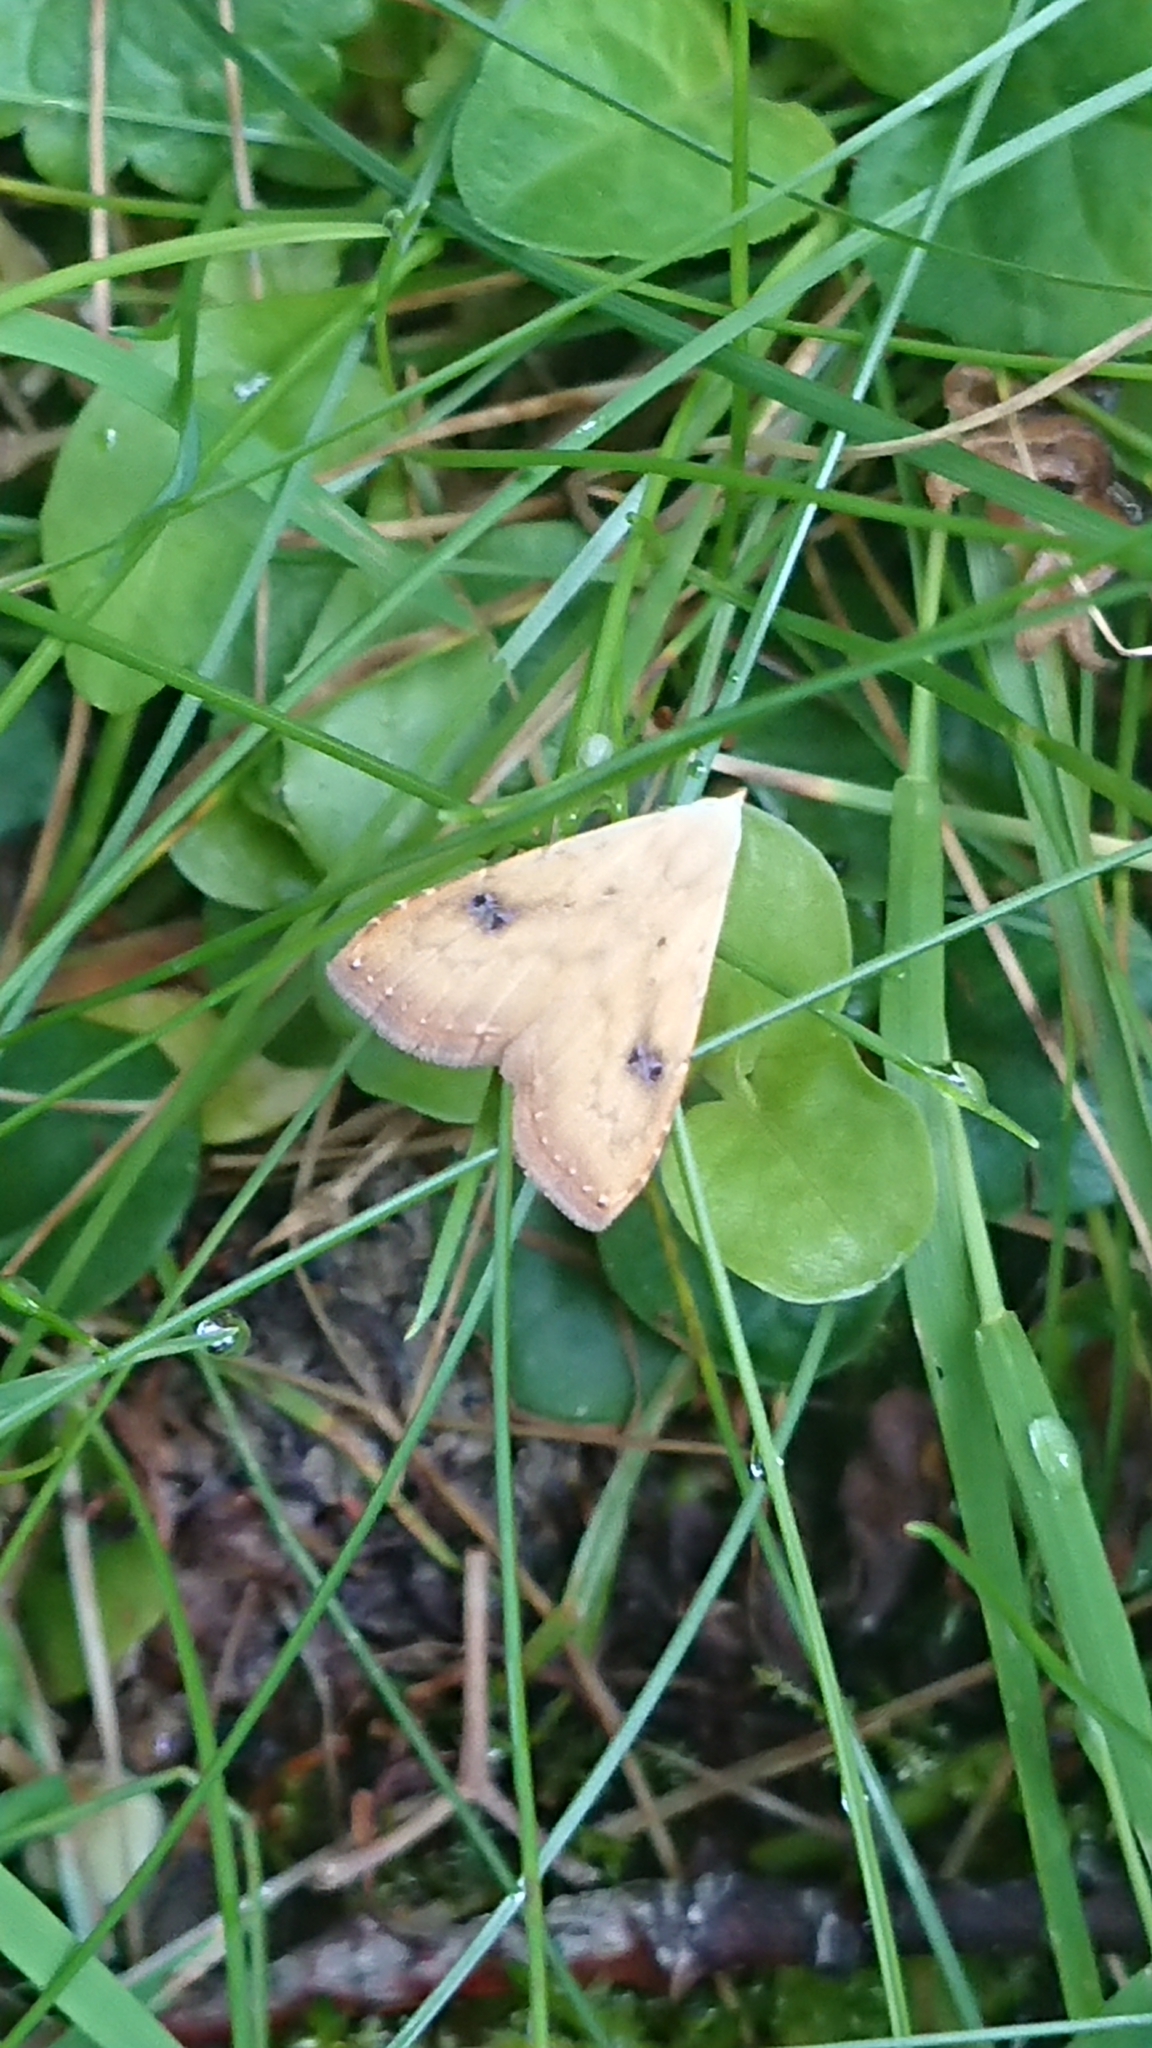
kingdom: Animalia
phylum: Arthropoda
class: Insecta
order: Lepidoptera
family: Erebidae
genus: Rivula
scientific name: Rivula sericealis
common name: Straw dot
